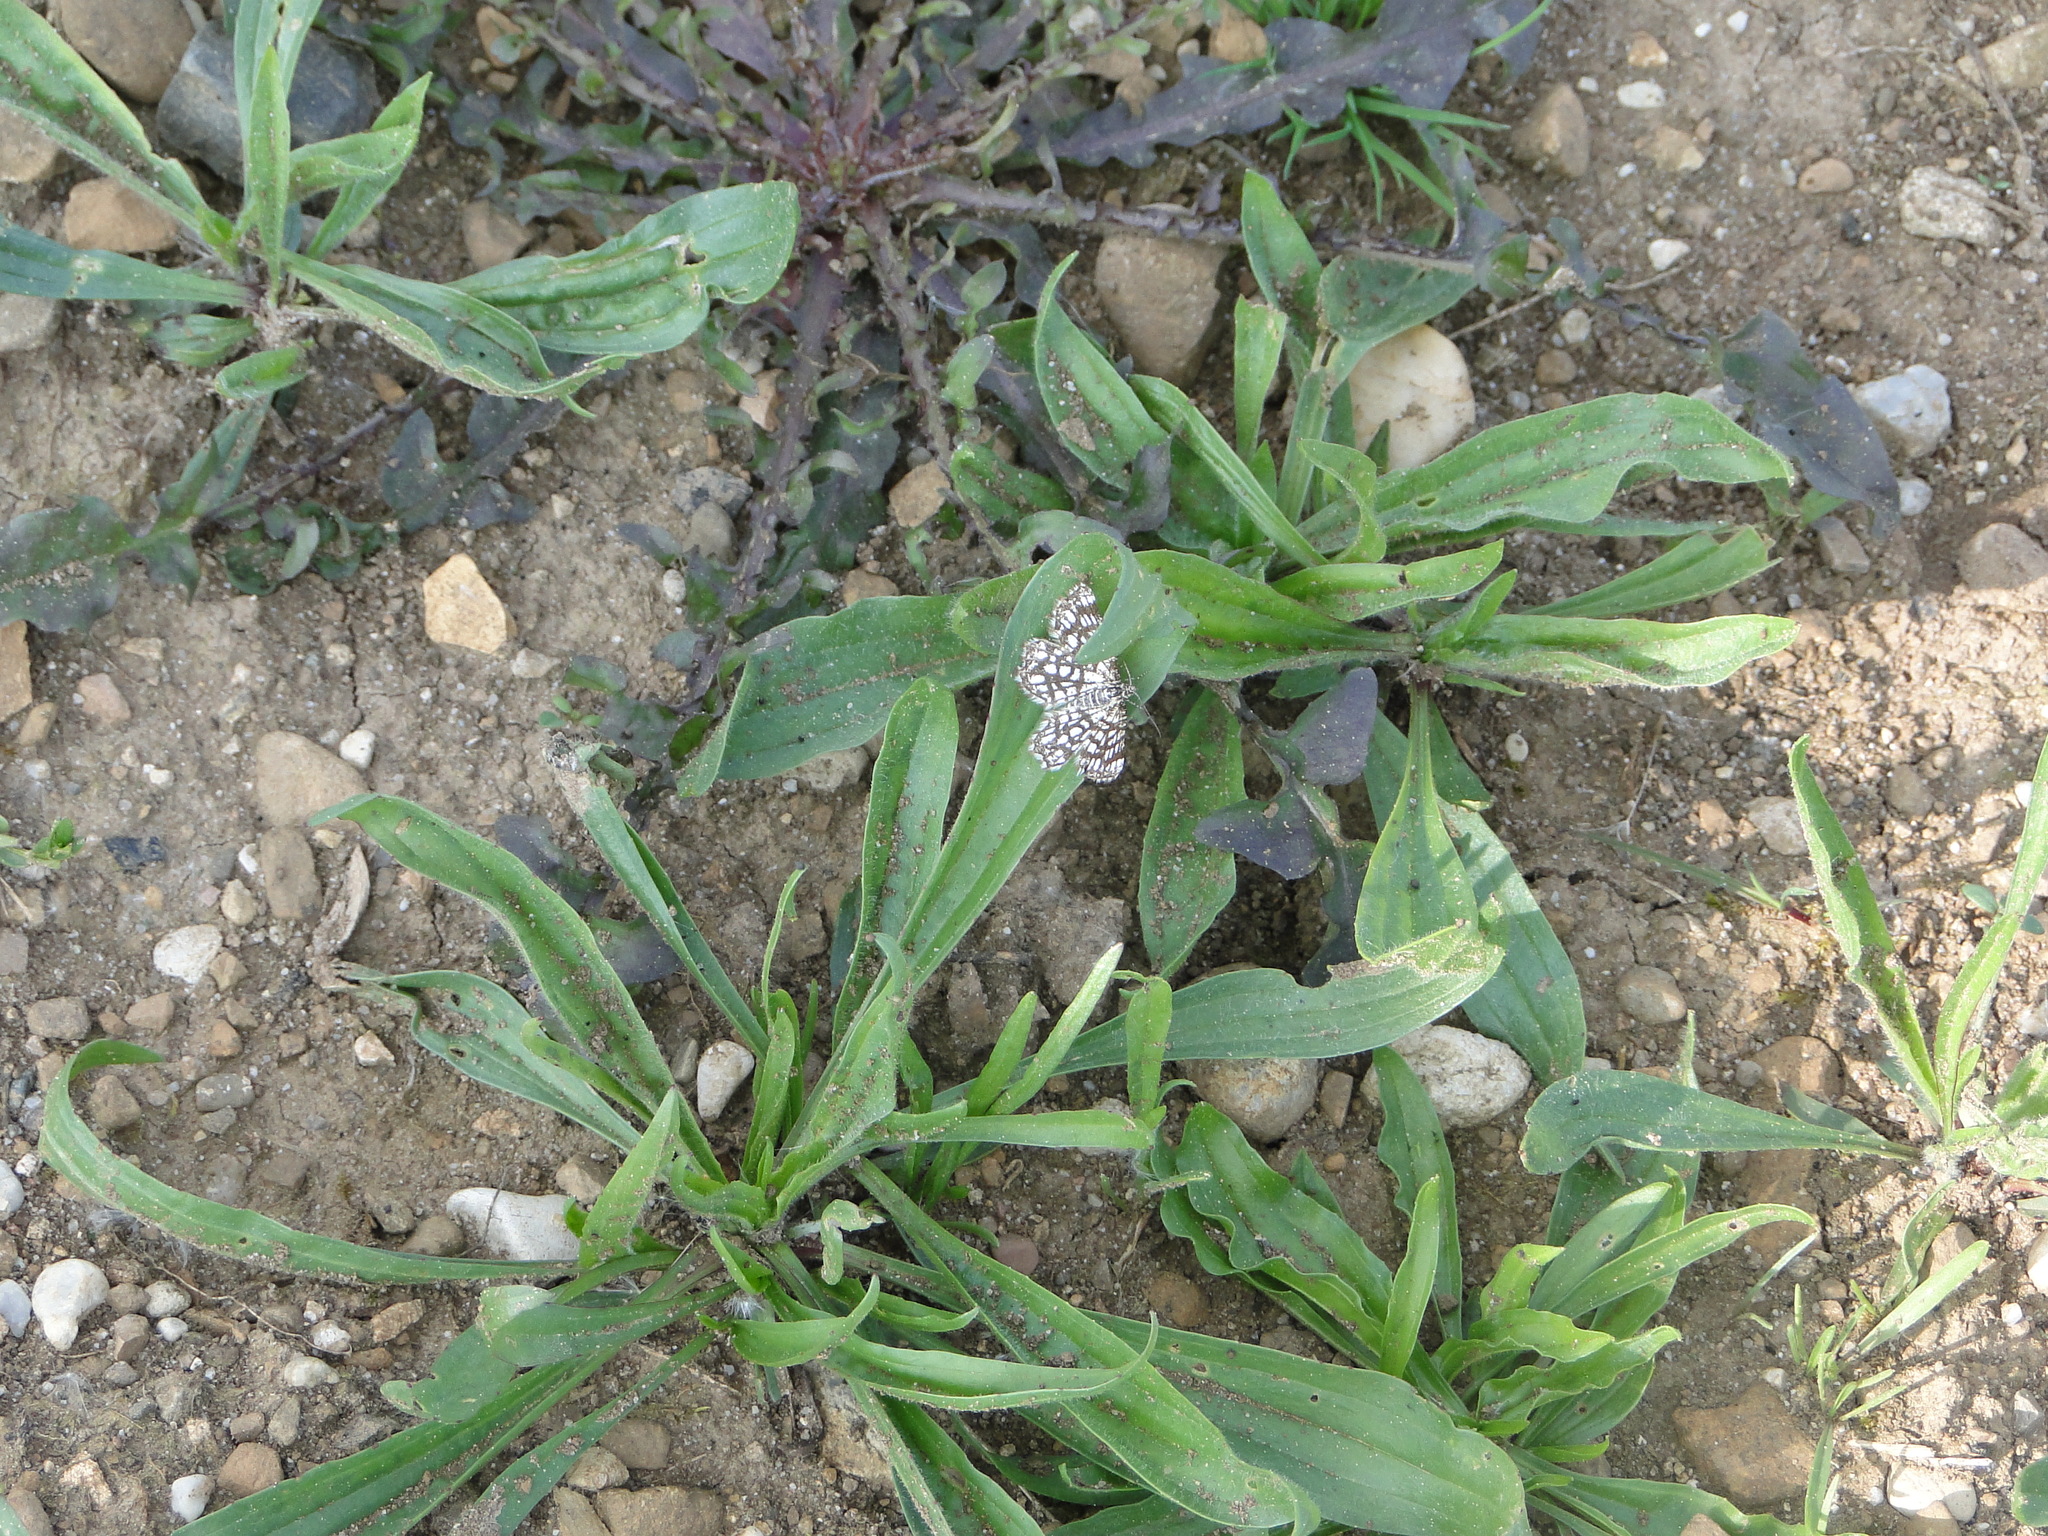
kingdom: Animalia
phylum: Arthropoda
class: Insecta
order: Lepidoptera
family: Geometridae
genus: Chiasmia
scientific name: Chiasmia clathrata
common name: Latticed heath
